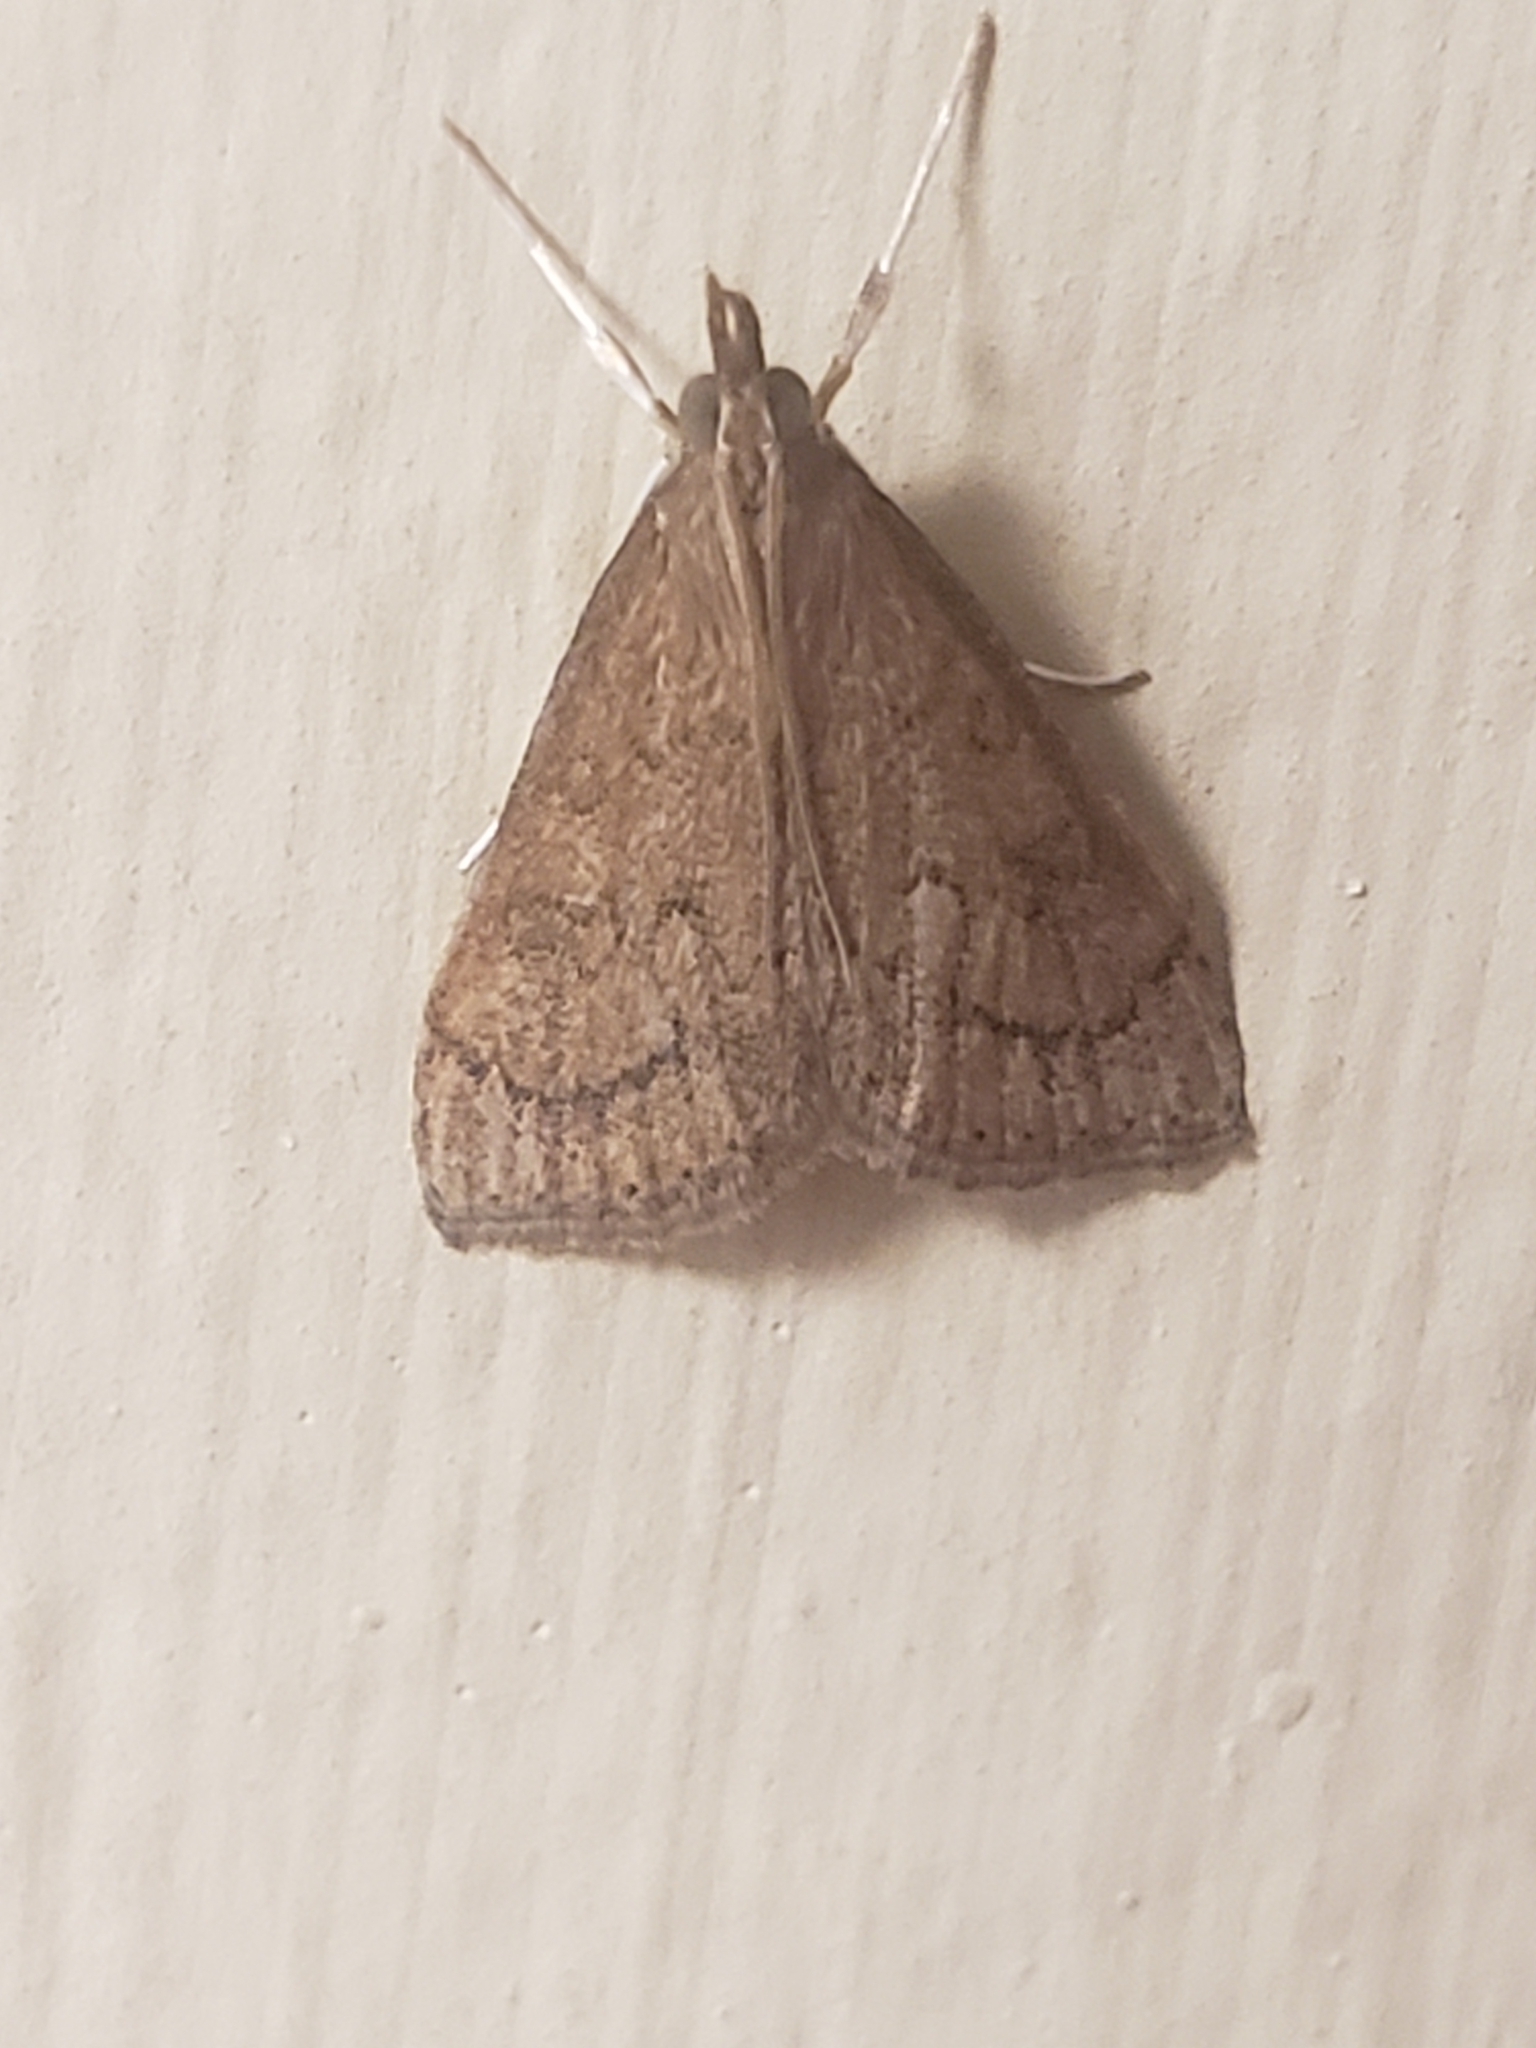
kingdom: Animalia
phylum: Arthropoda
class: Insecta
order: Lepidoptera
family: Crambidae
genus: Udea
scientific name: Udea rubigalis
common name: Celery leaftier moth
